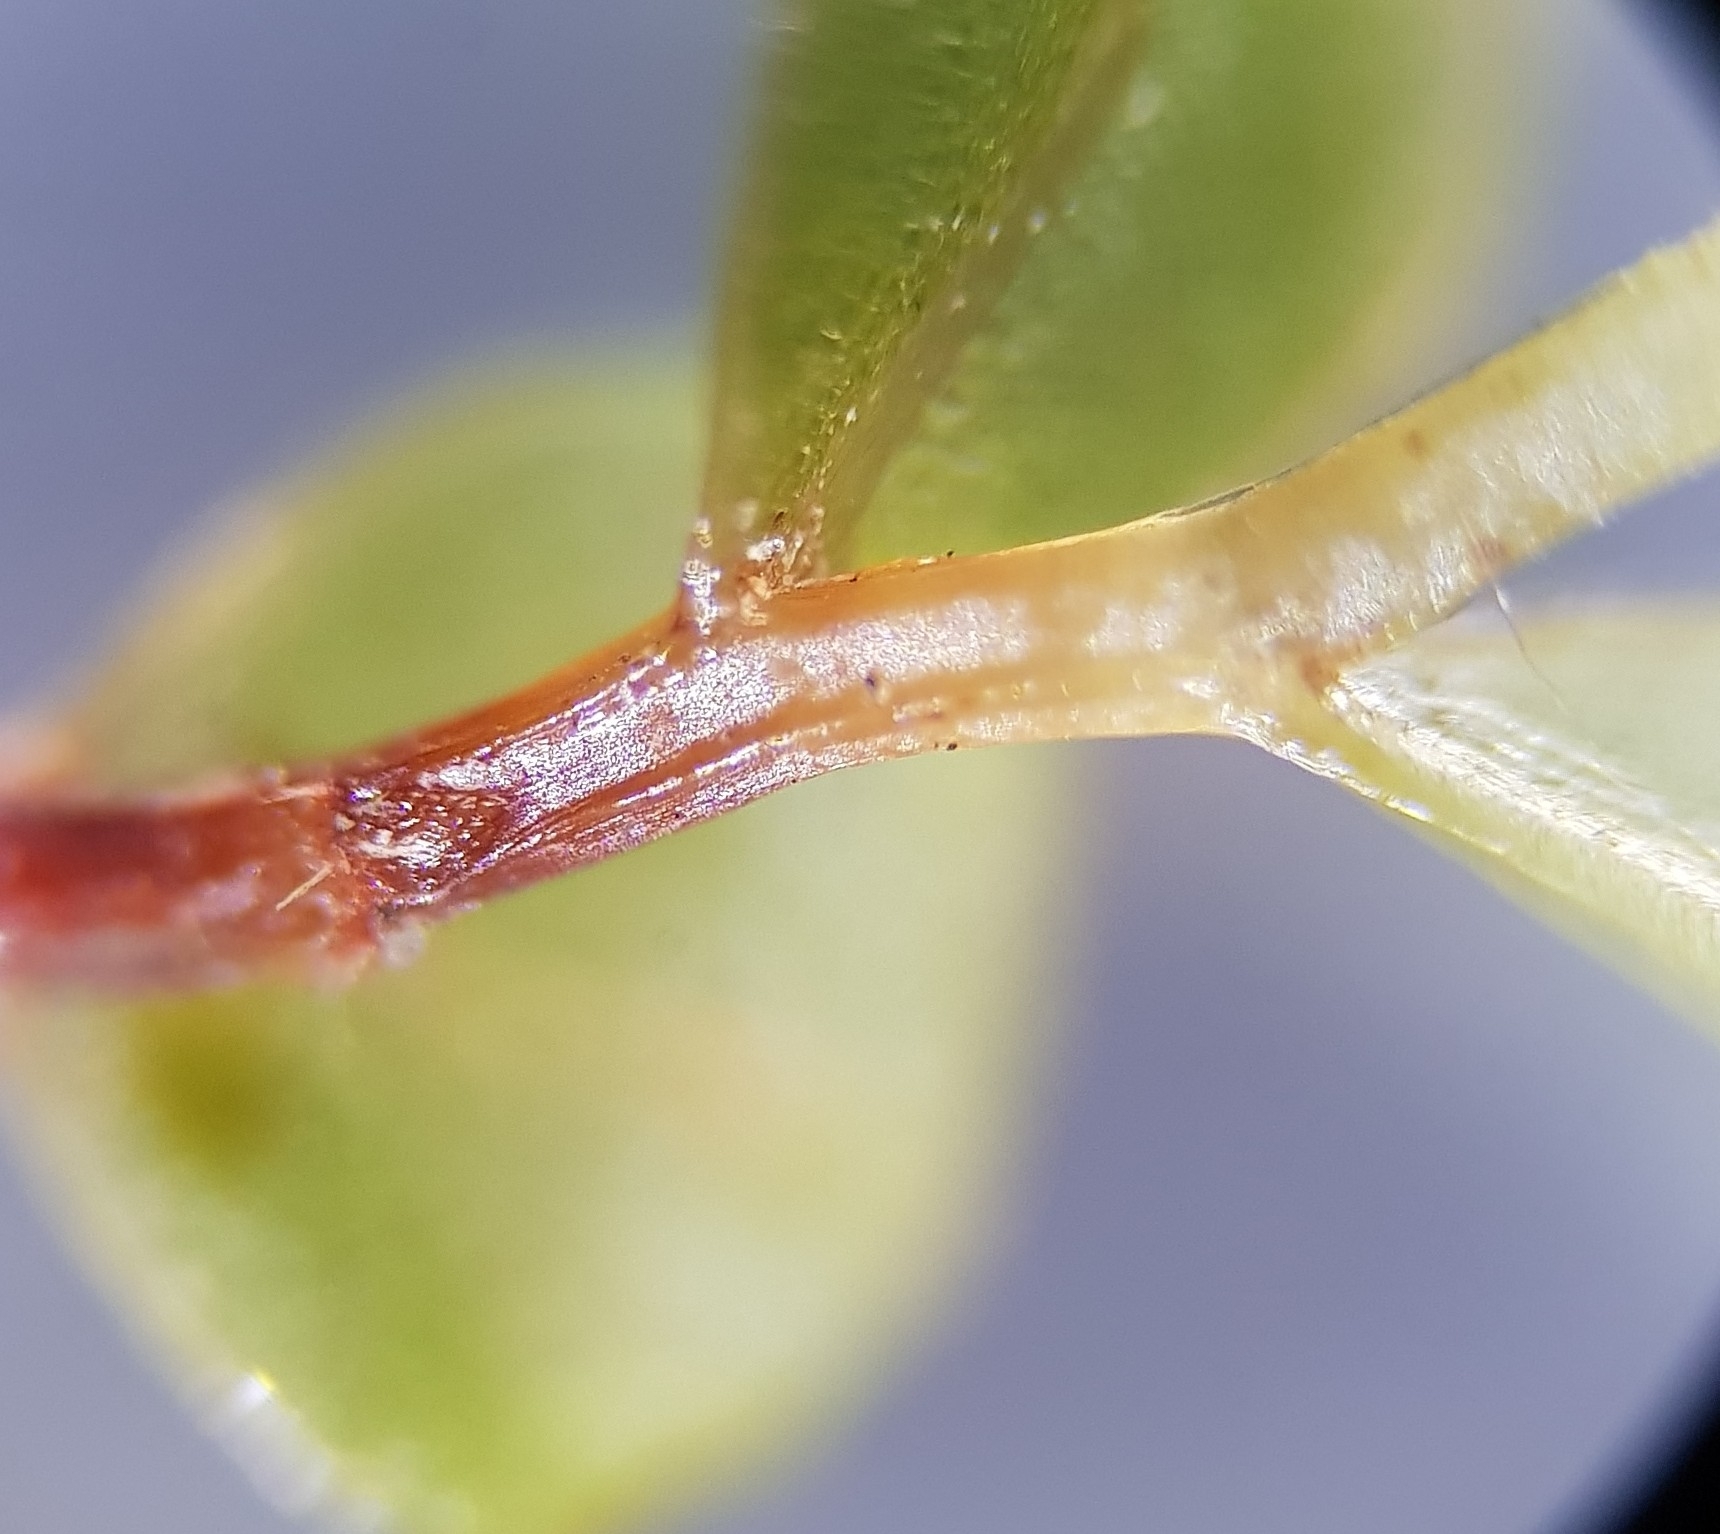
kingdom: Plantae
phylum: Bryophyta
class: Bryopsida
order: Bryales
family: Mniaceae
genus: Rhizomnium
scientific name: Rhizomnium punctatum
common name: Dotted leafy moss
